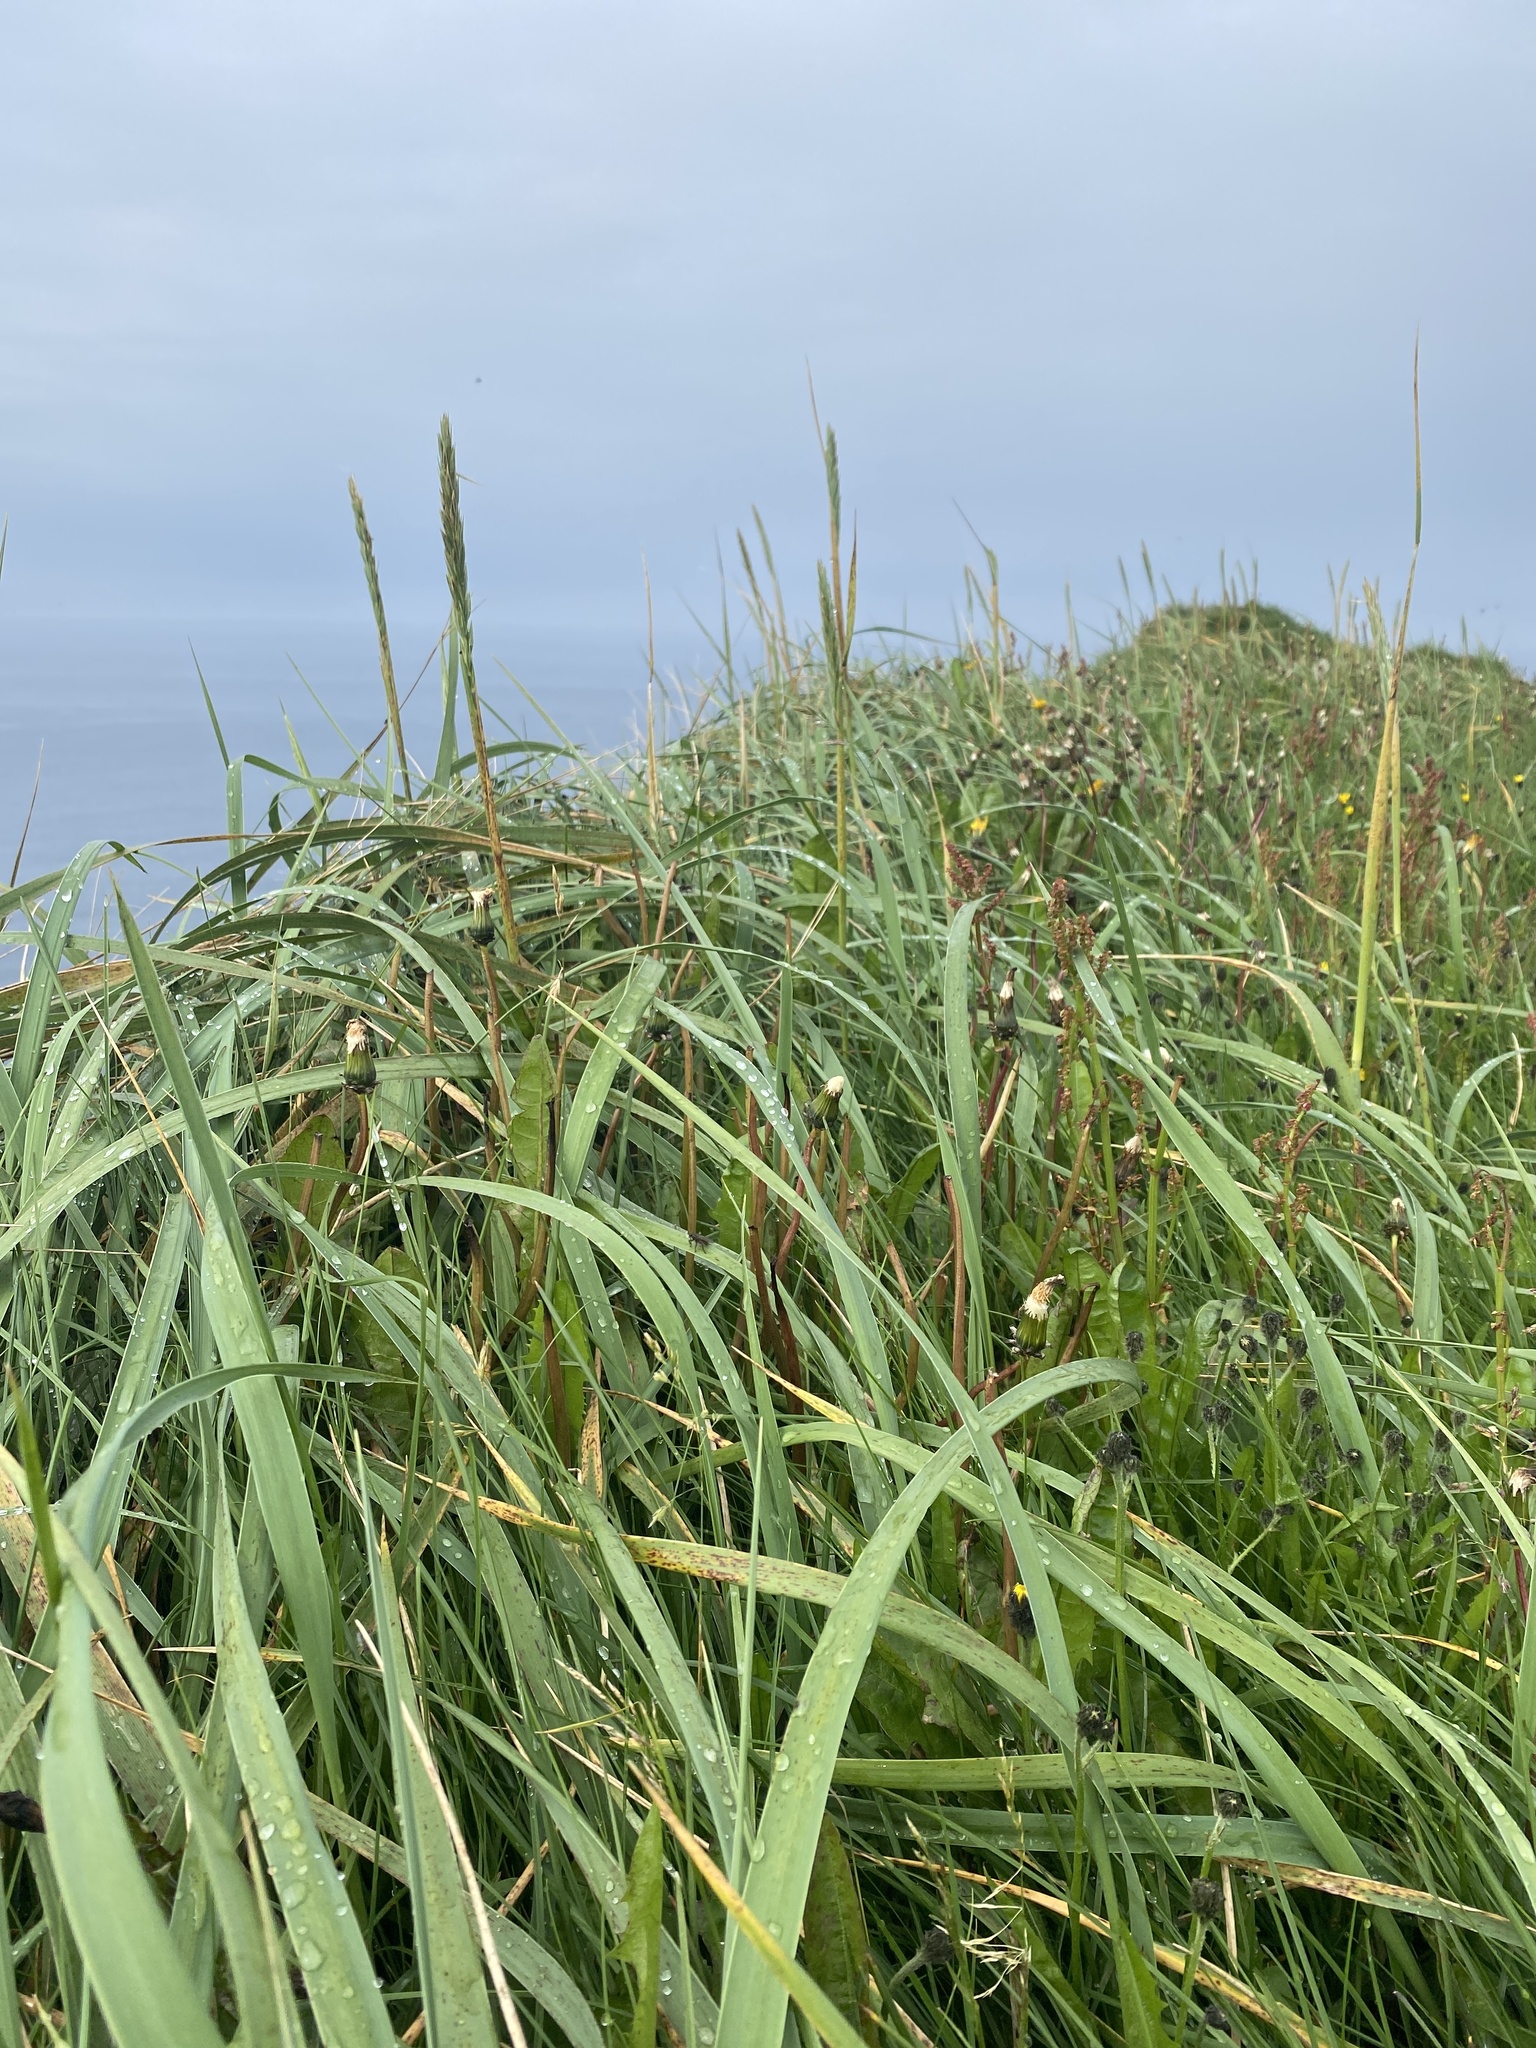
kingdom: Plantae
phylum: Tracheophyta
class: Liliopsida
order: Poales
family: Poaceae
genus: Leymus
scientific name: Leymus arenarius
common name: Lyme-grass
